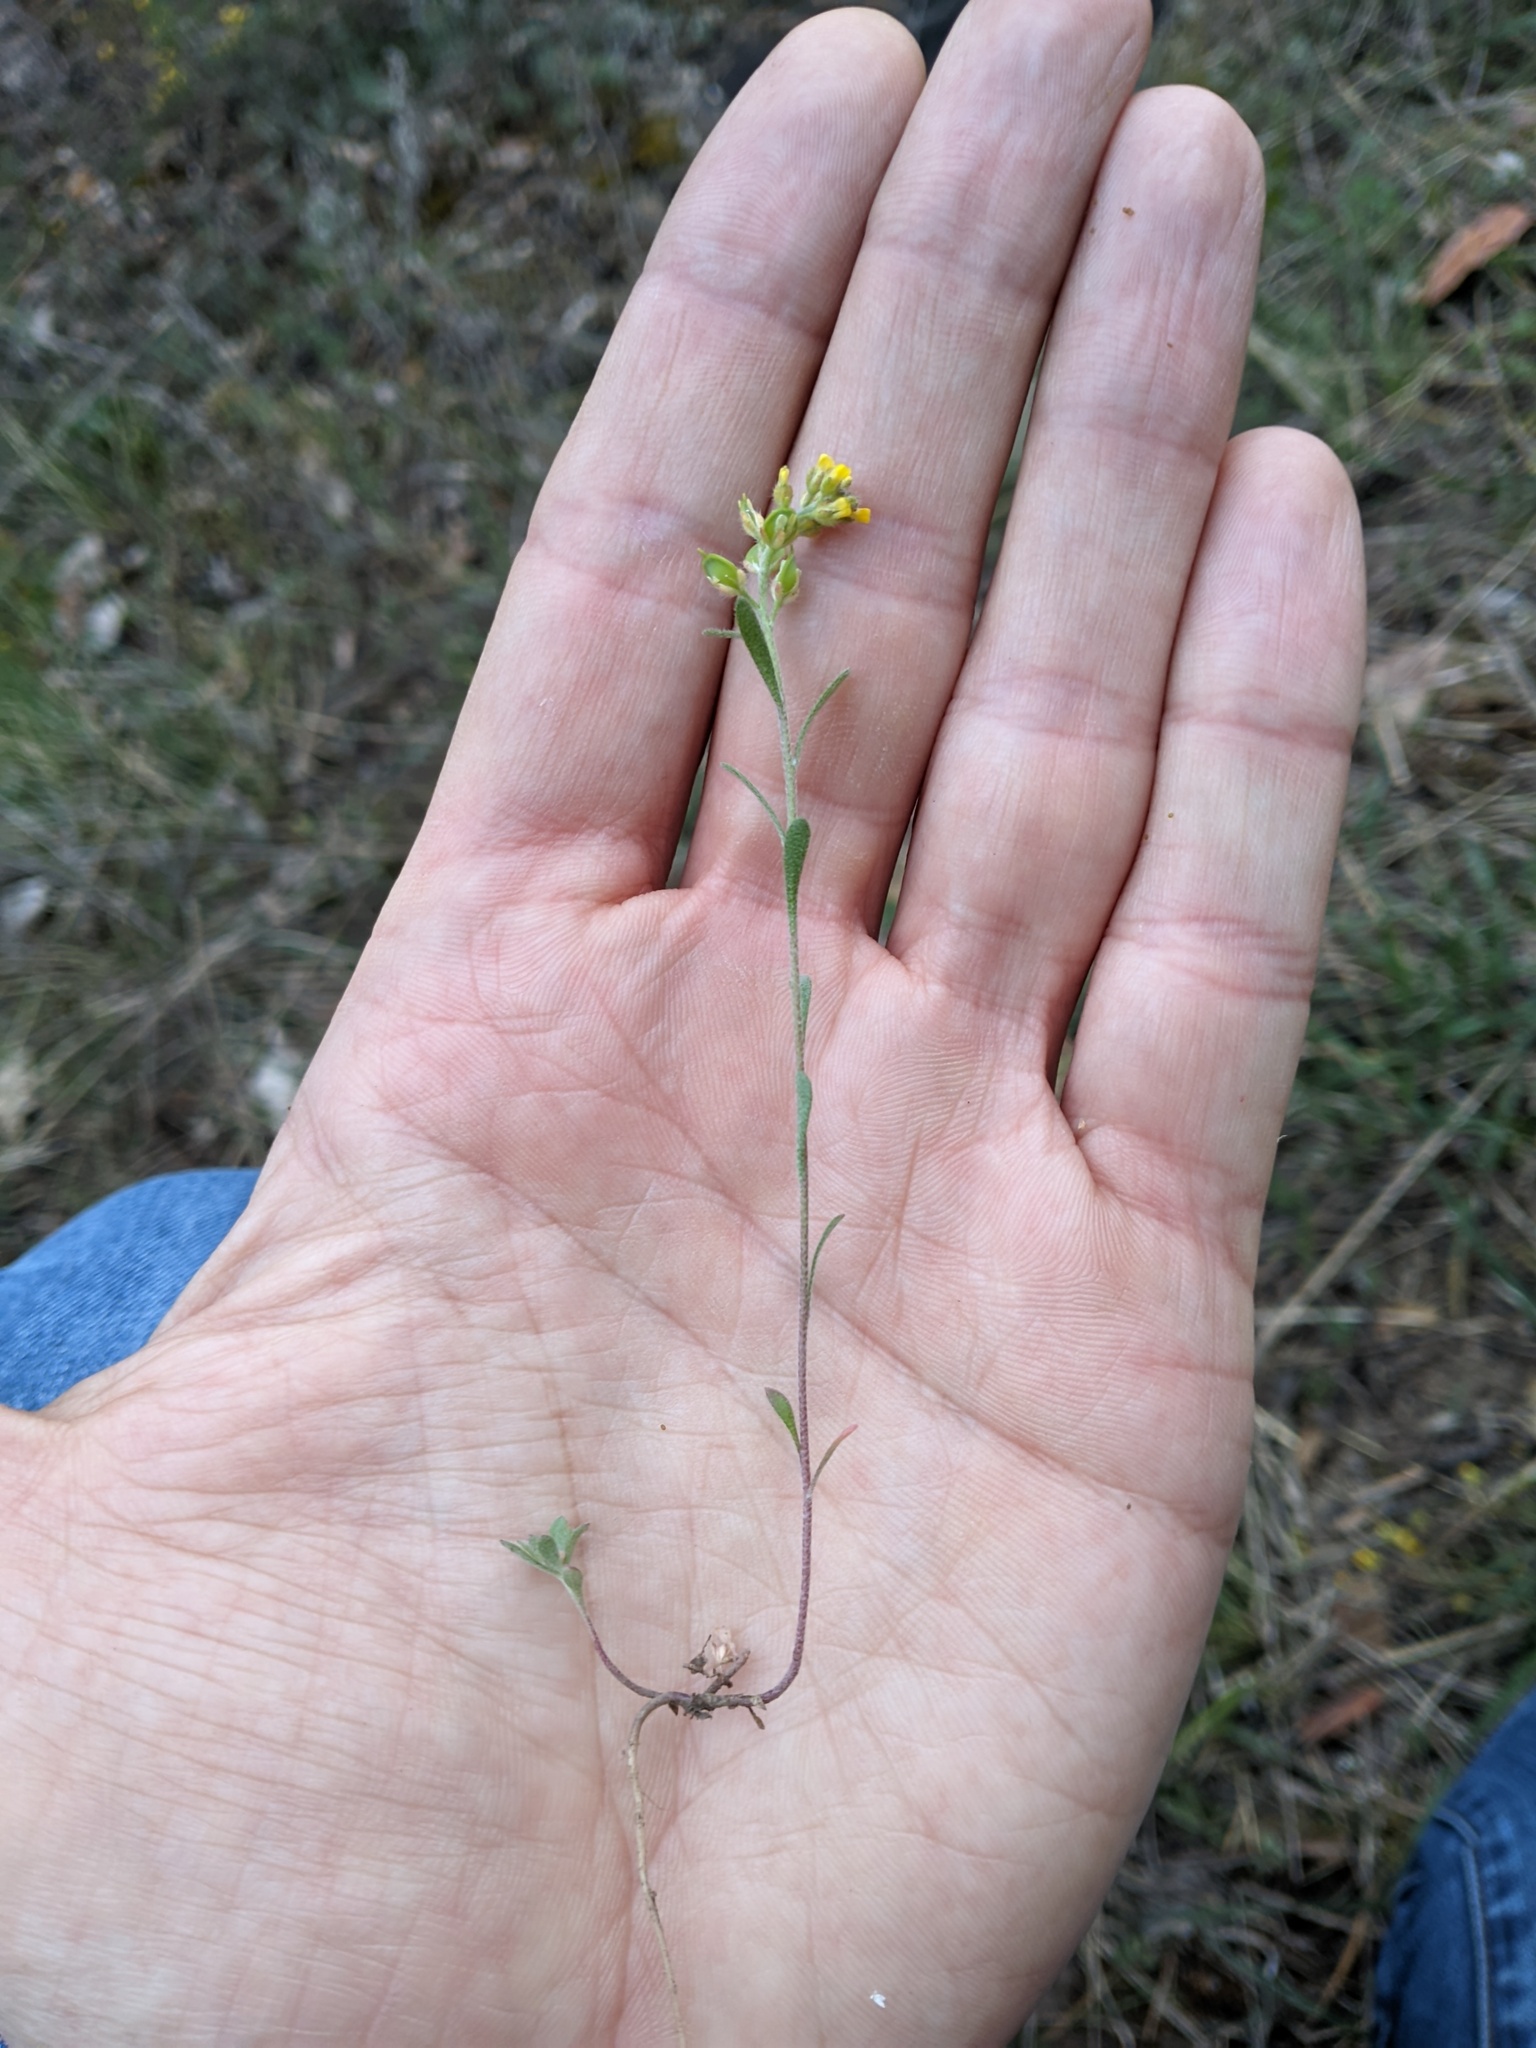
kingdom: Plantae
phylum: Tracheophyta
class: Magnoliopsida
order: Brassicales
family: Brassicaceae
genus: Alyssum
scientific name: Alyssum turkestanicum
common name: Desert alyssum
